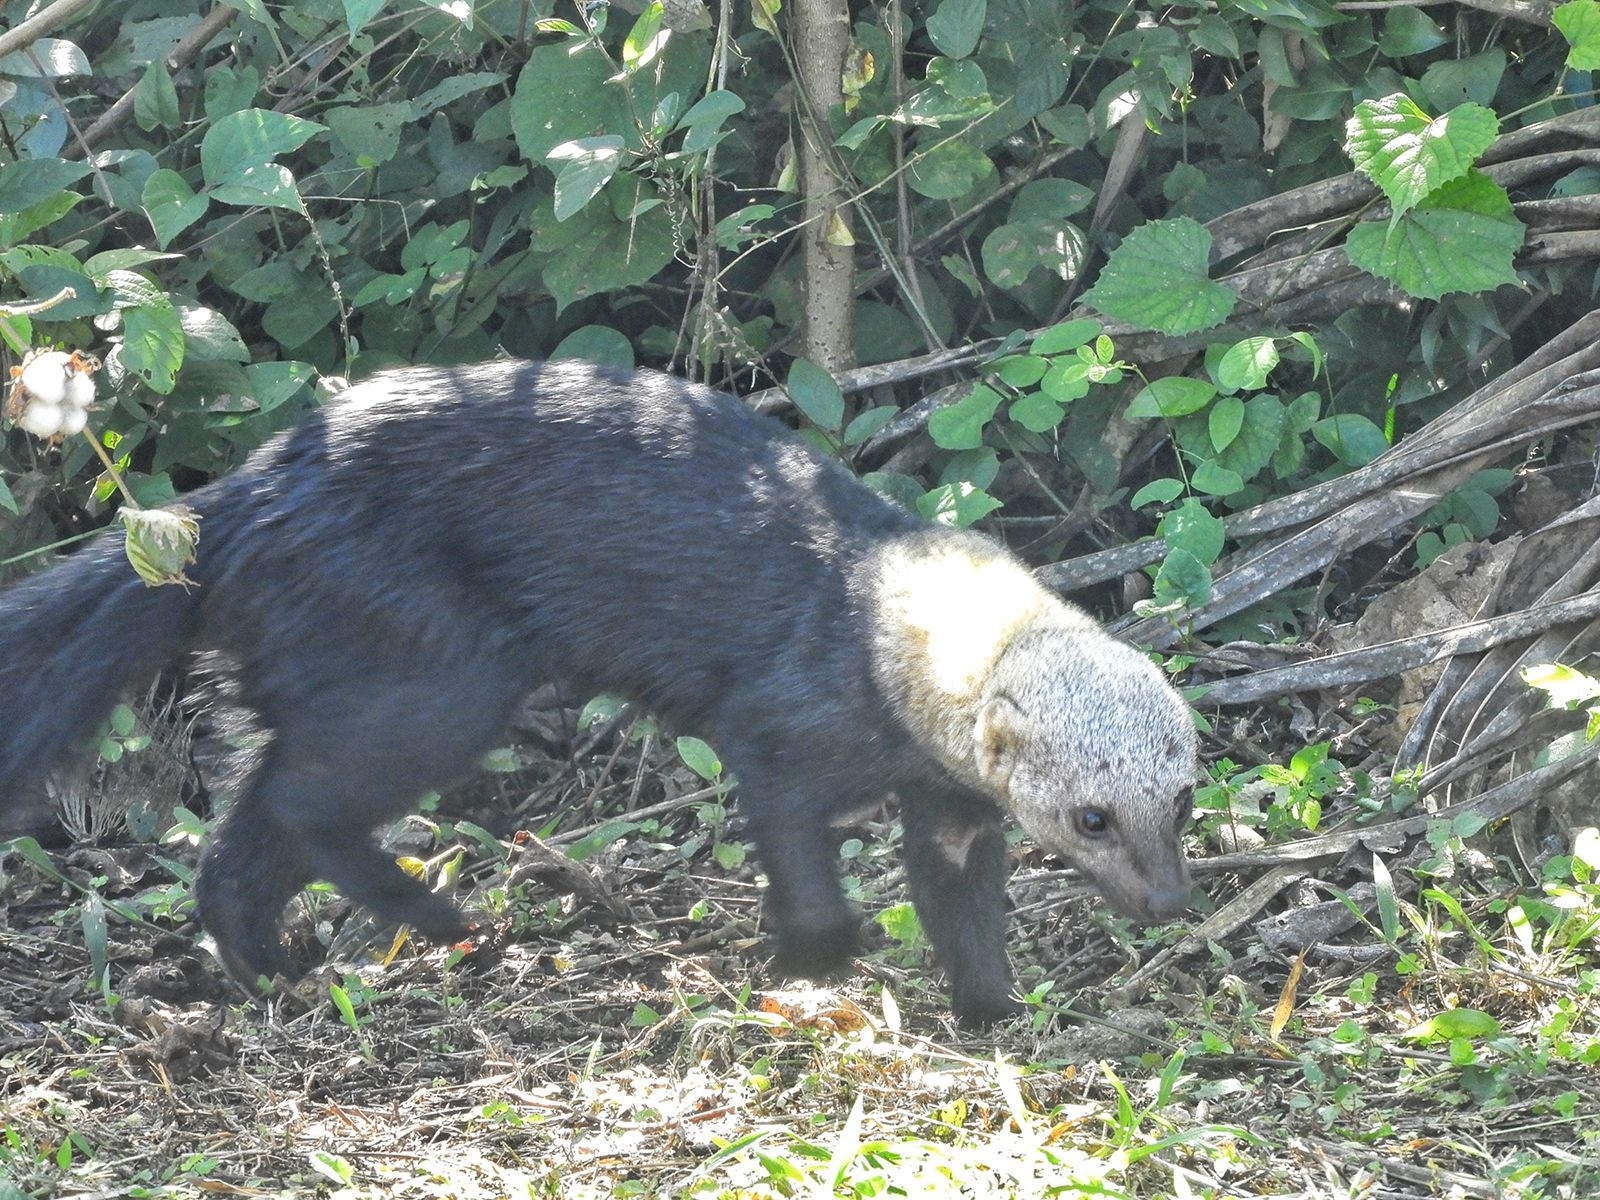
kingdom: Animalia
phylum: Chordata
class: Mammalia
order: Carnivora
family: Mustelidae
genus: Eira
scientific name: Eira barbara
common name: Tayra
